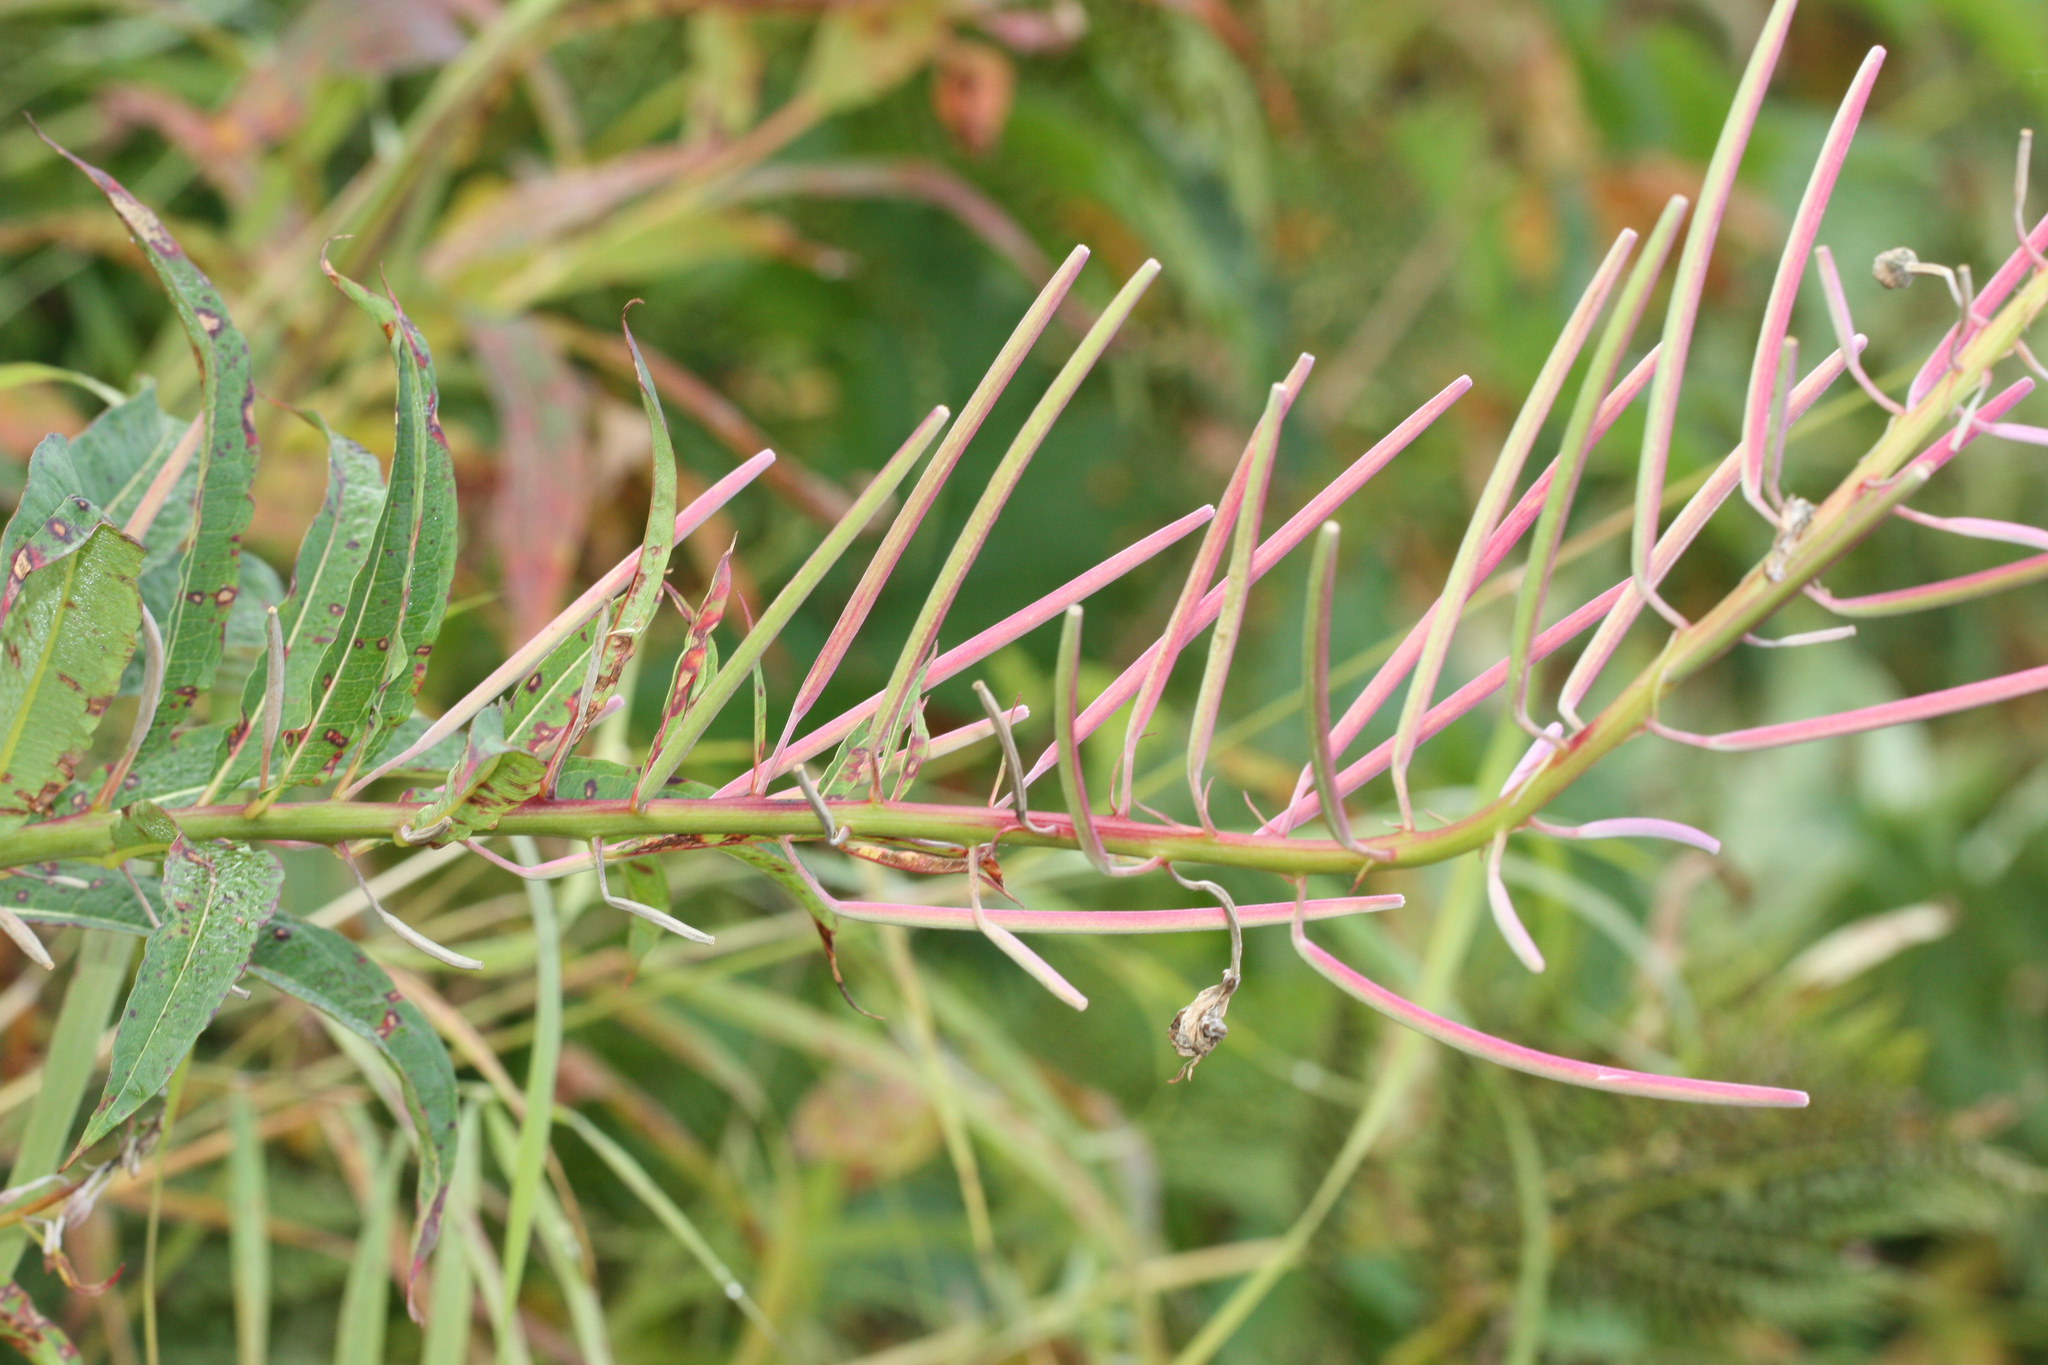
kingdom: Plantae
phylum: Tracheophyta
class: Magnoliopsida
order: Myrtales
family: Onagraceae
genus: Chamaenerion
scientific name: Chamaenerion angustifolium
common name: Fireweed
